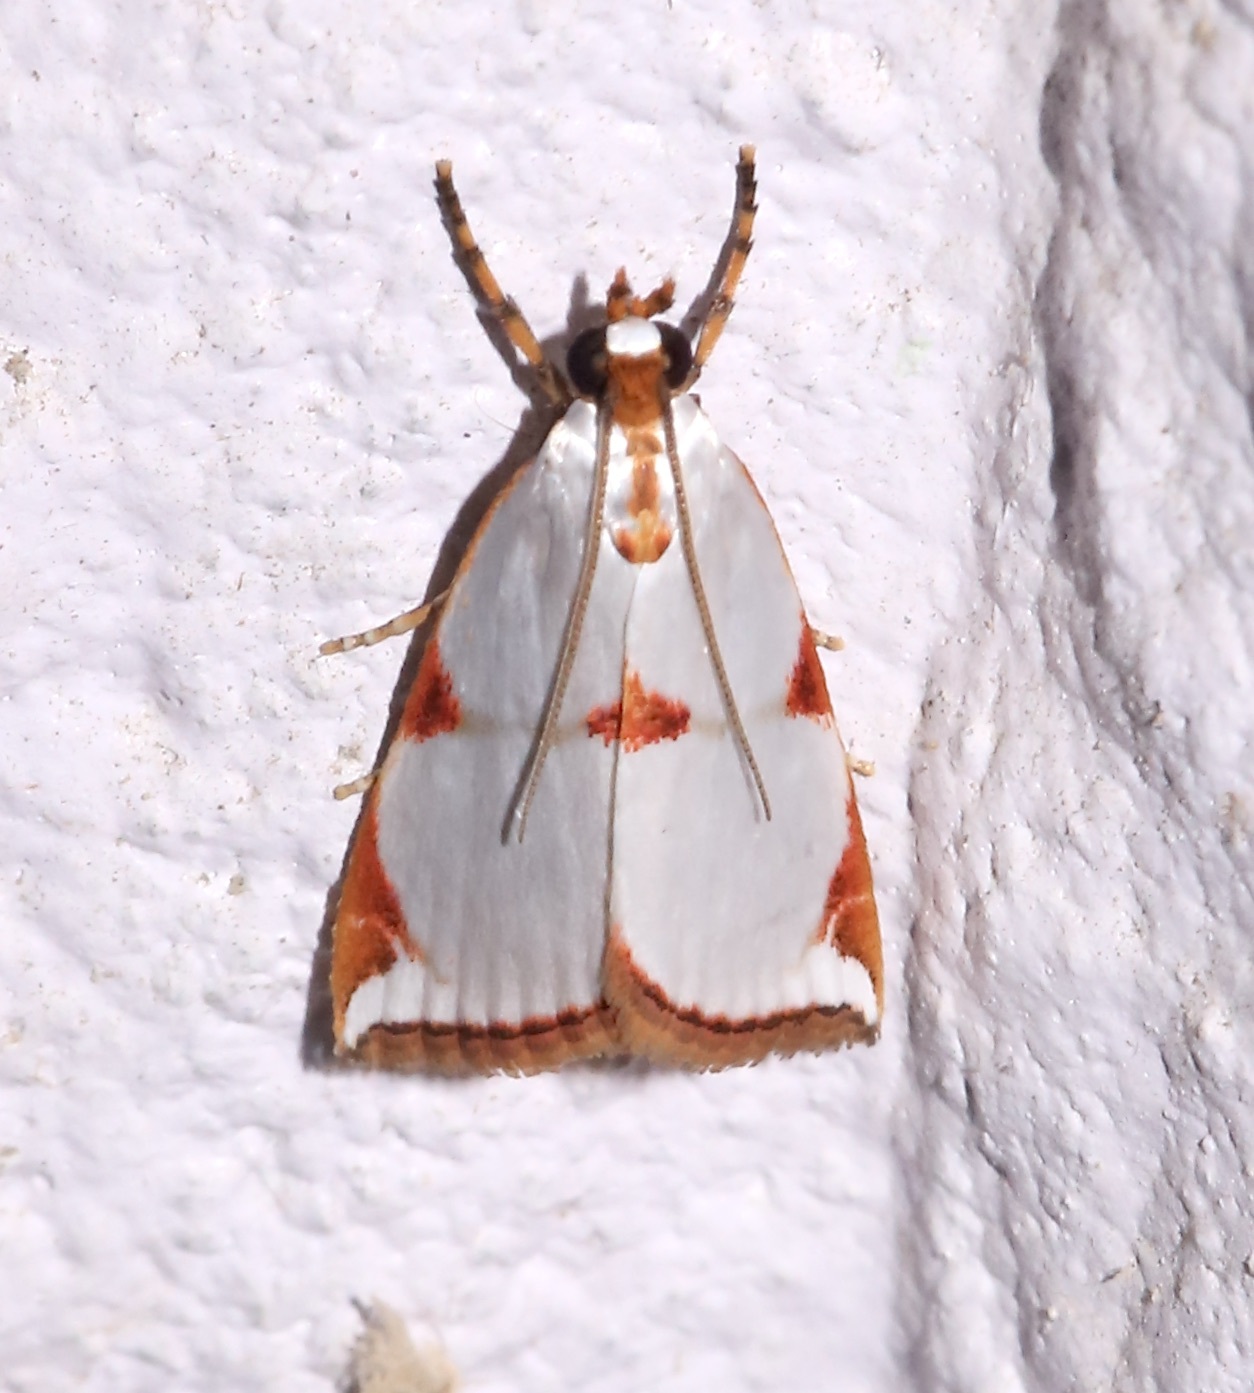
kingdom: Animalia
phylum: Arthropoda
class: Insecta
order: Lepidoptera
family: Crambidae
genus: Argyria
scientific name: Argyria centrifugens
